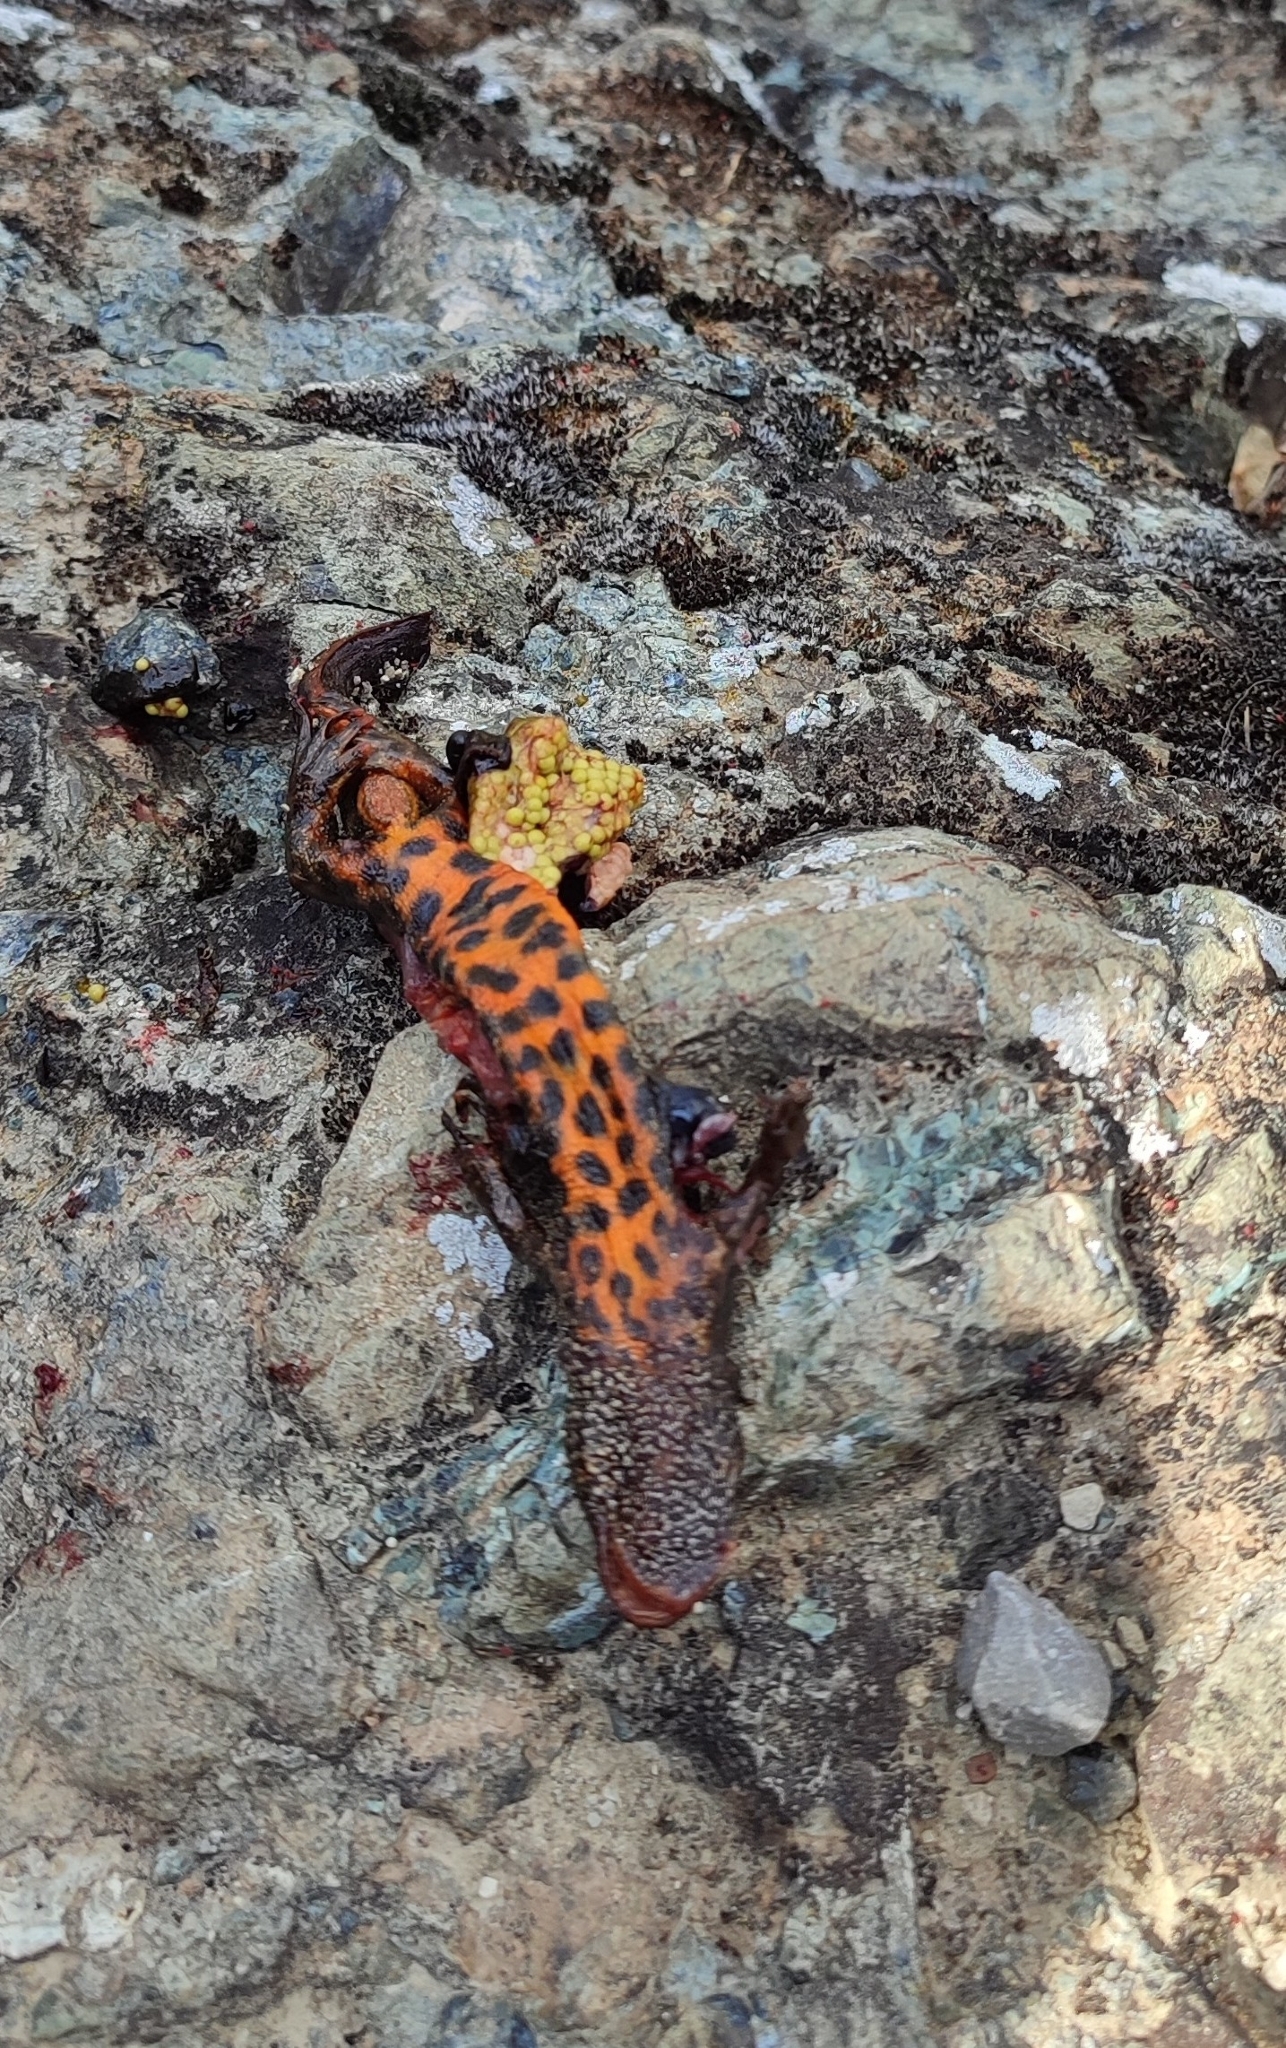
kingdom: Animalia
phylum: Chordata
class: Amphibia
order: Caudata
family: Salamandridae
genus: Triturus
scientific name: Triturus carnifex
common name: Italian crested newt
